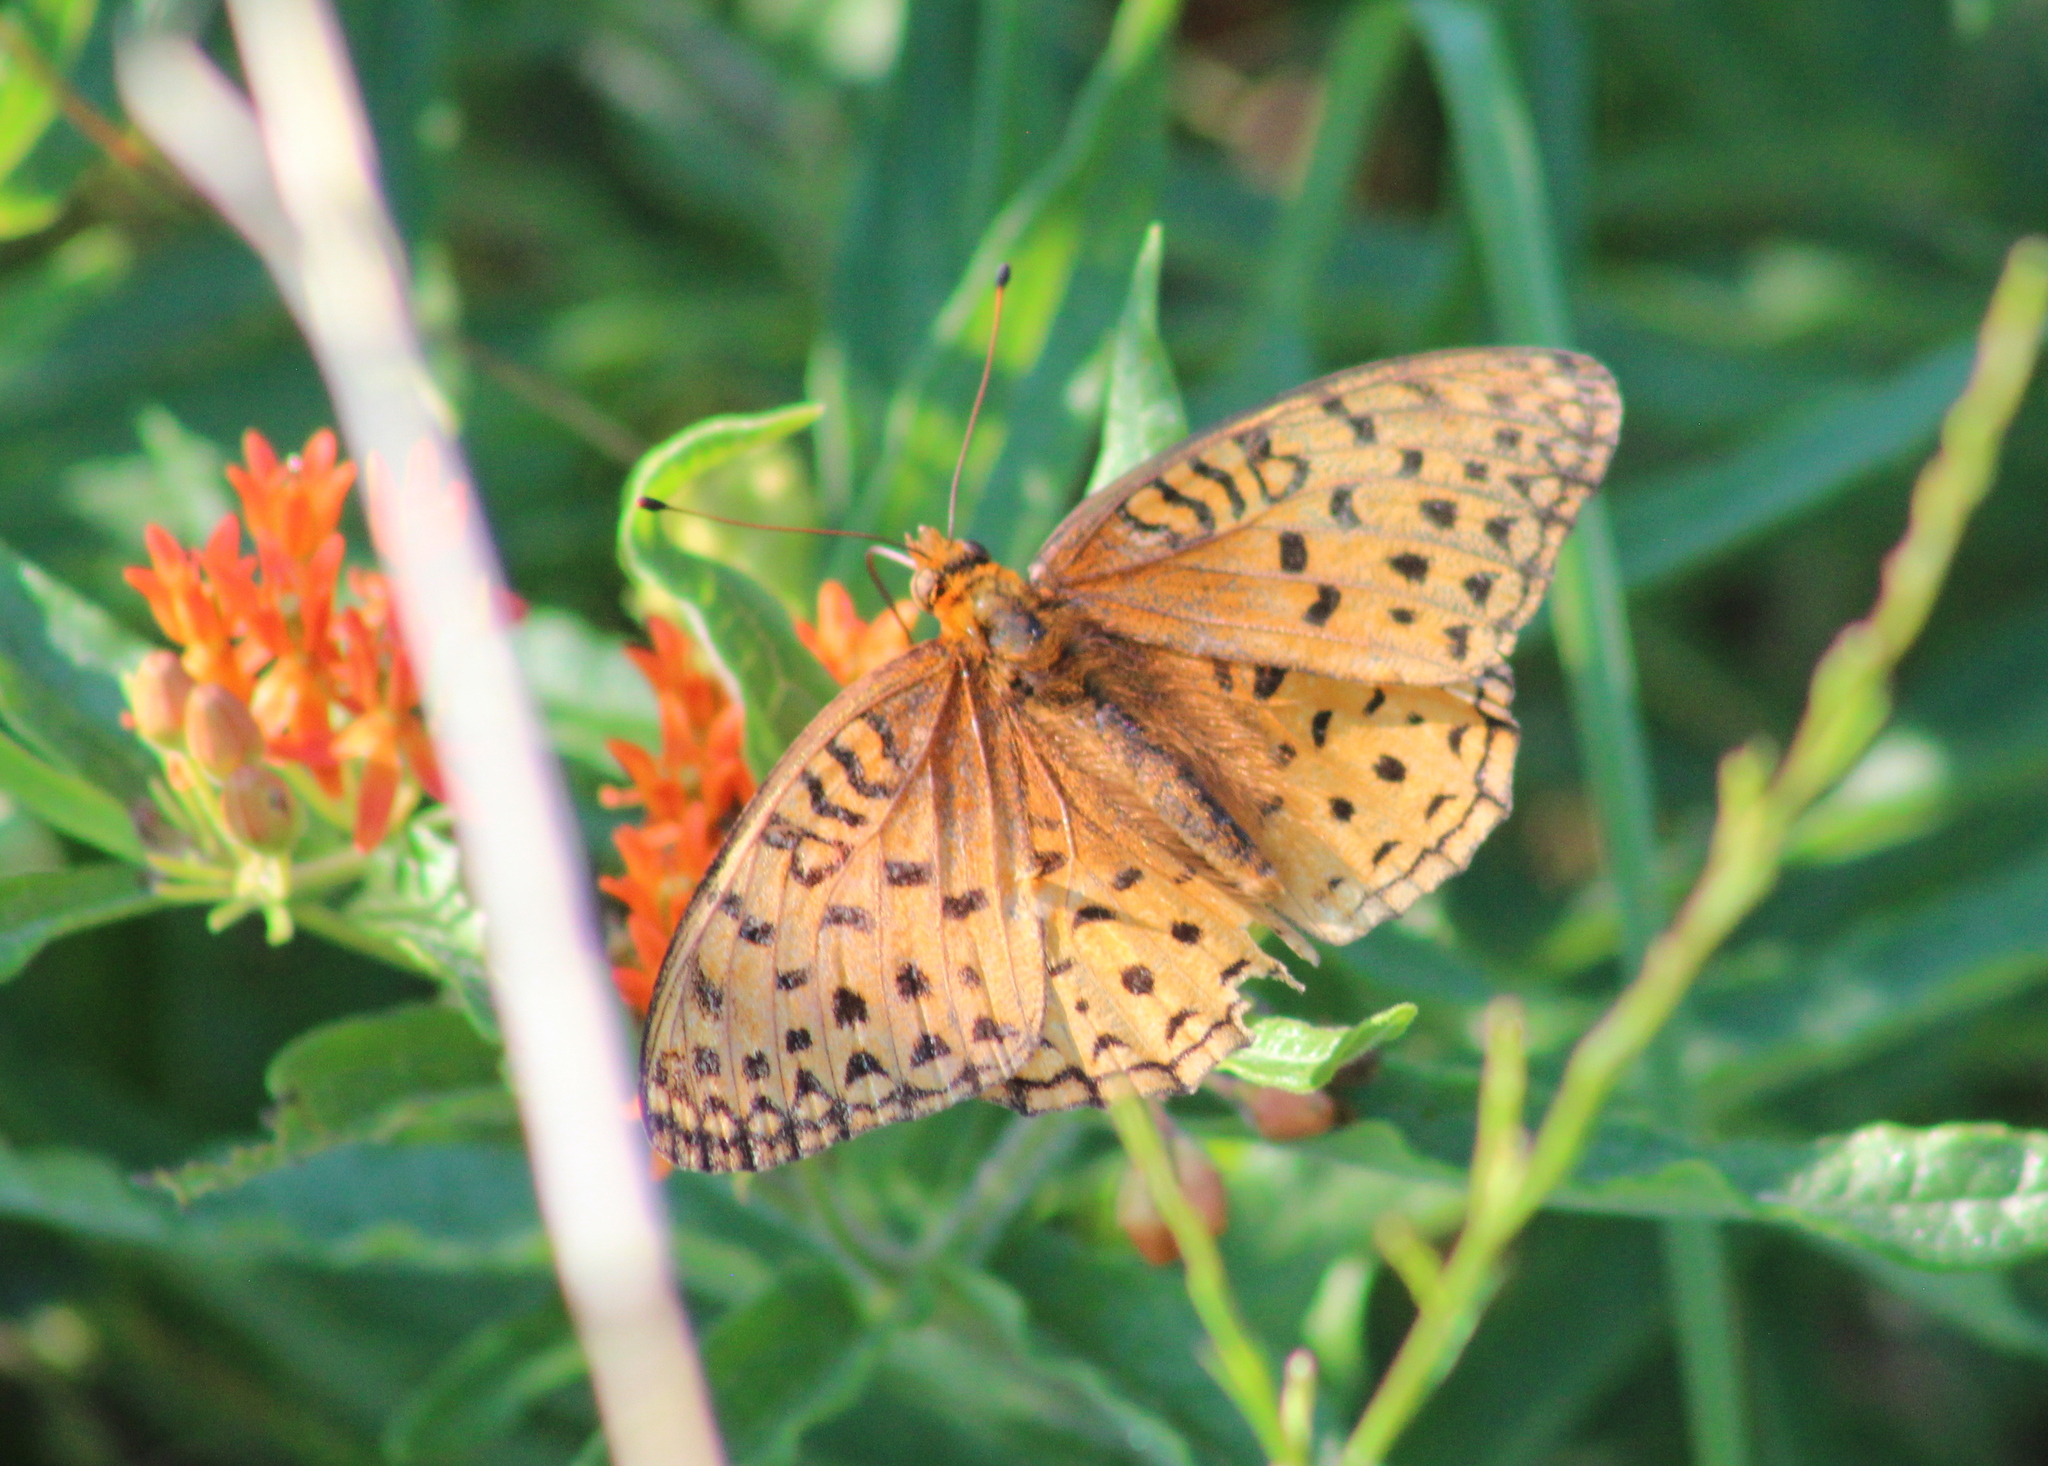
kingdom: Animalia
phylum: Arthropoda
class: Insecta
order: Lepidoptera
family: Nymphalidae
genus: Speyeria
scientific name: Speyeria aphrodite
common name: Aphrodite friitllary
